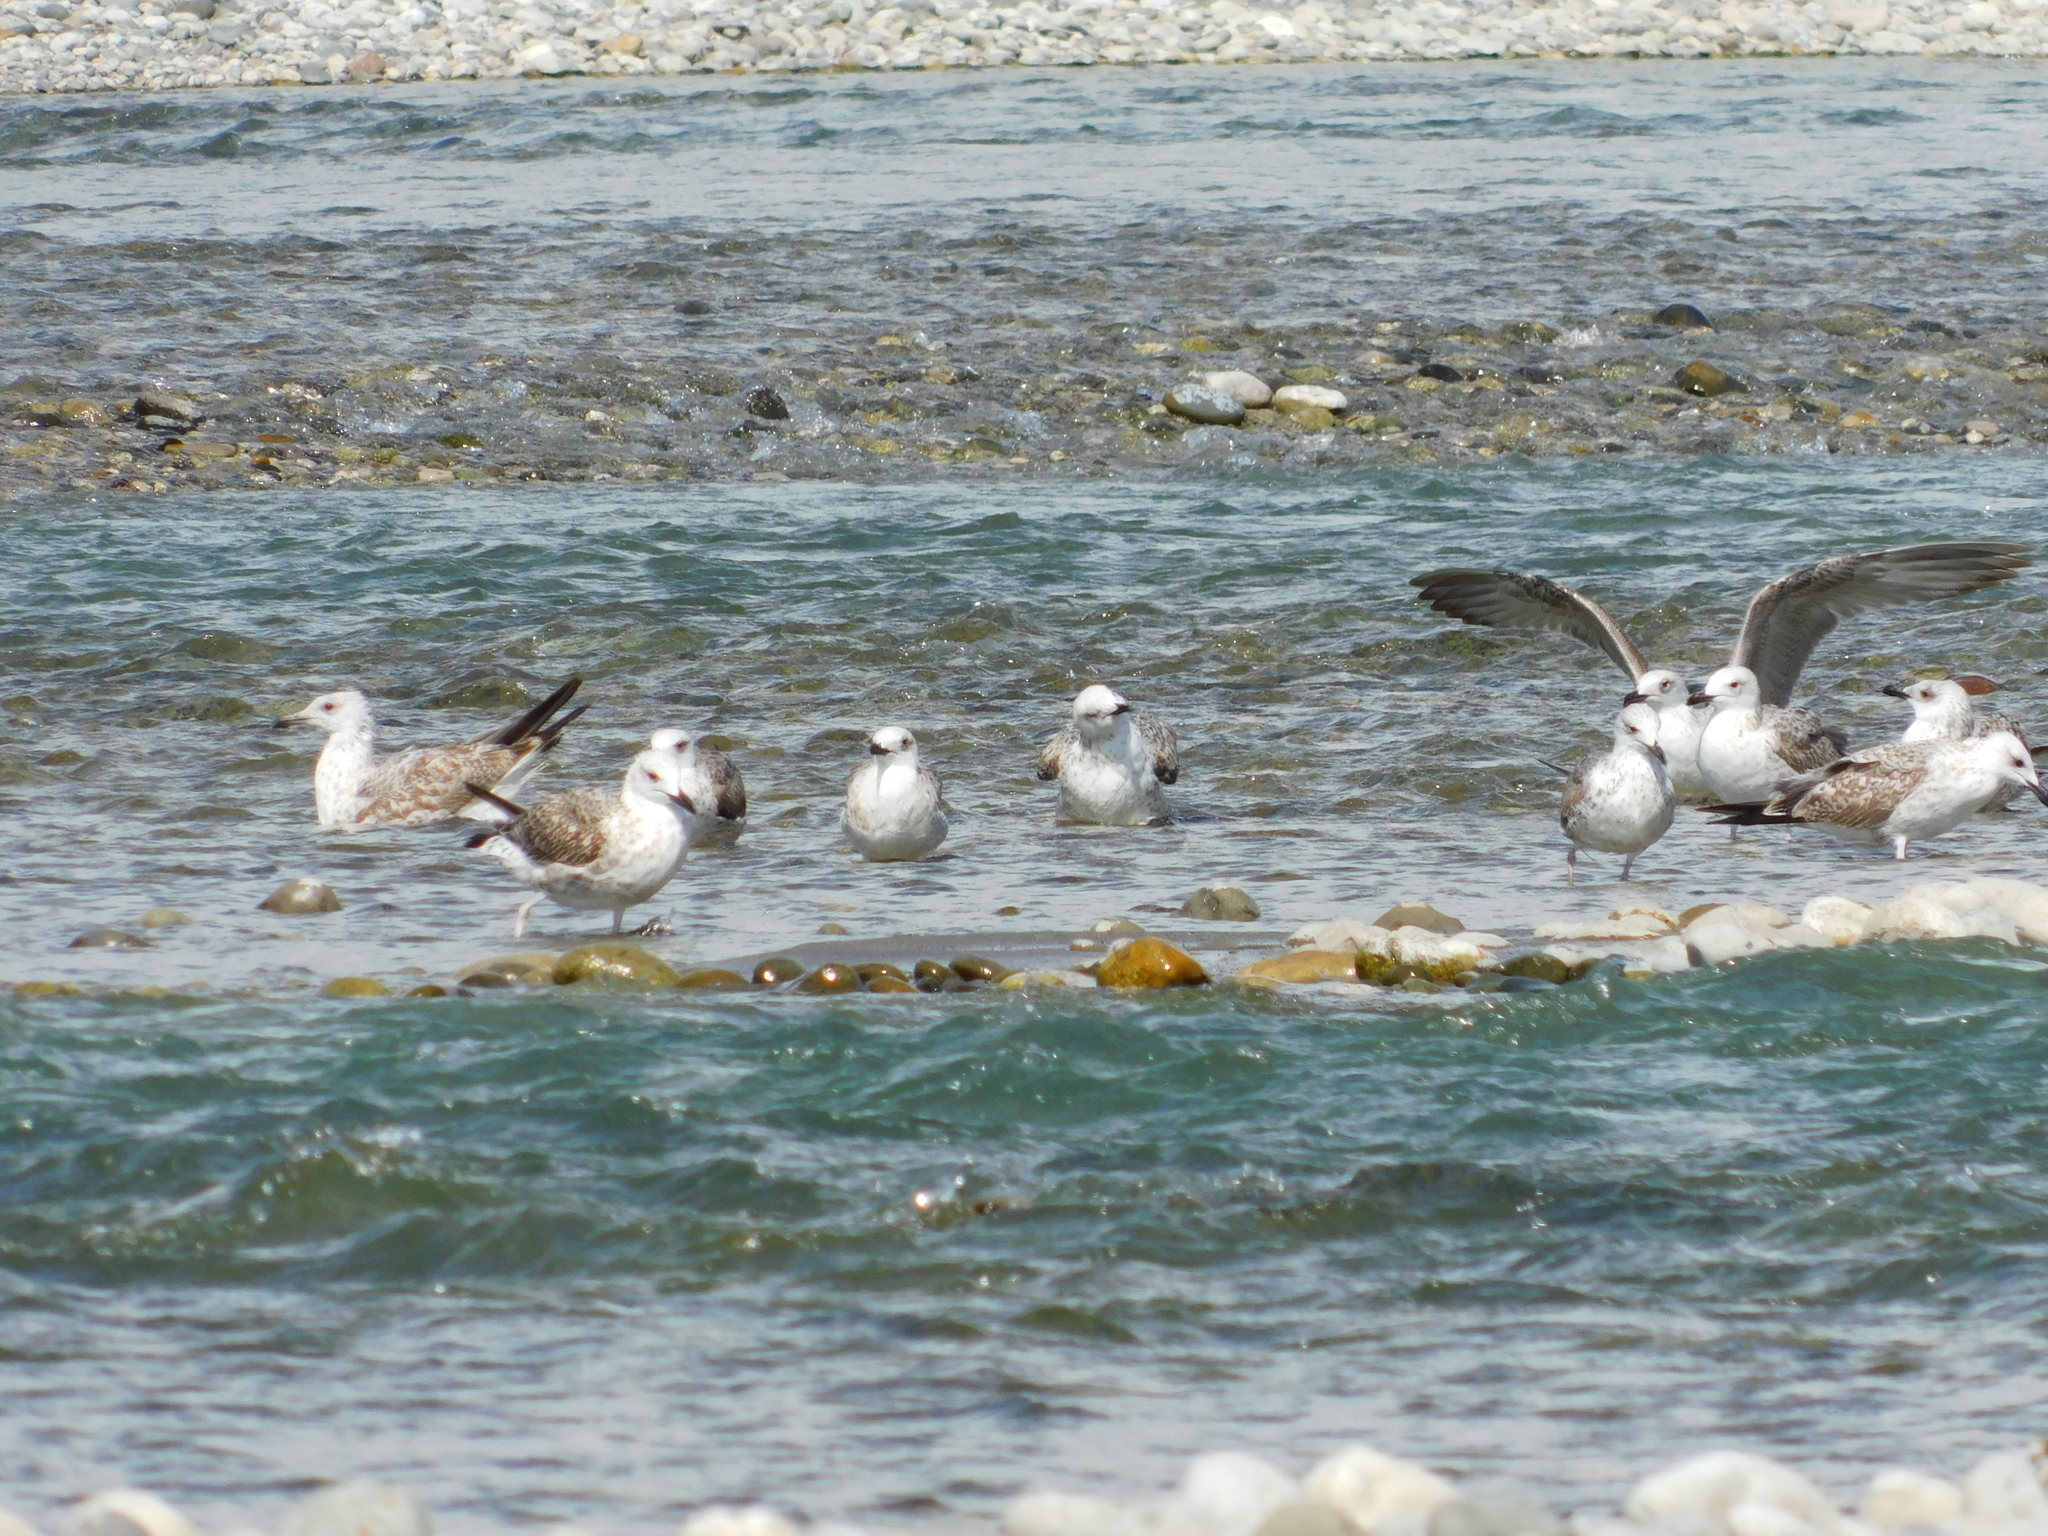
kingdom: Animalia
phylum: Chordata
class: Aves
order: Charadriiformes
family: Laridae
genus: Larus
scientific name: Larus cachinnans
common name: Caspian gull
